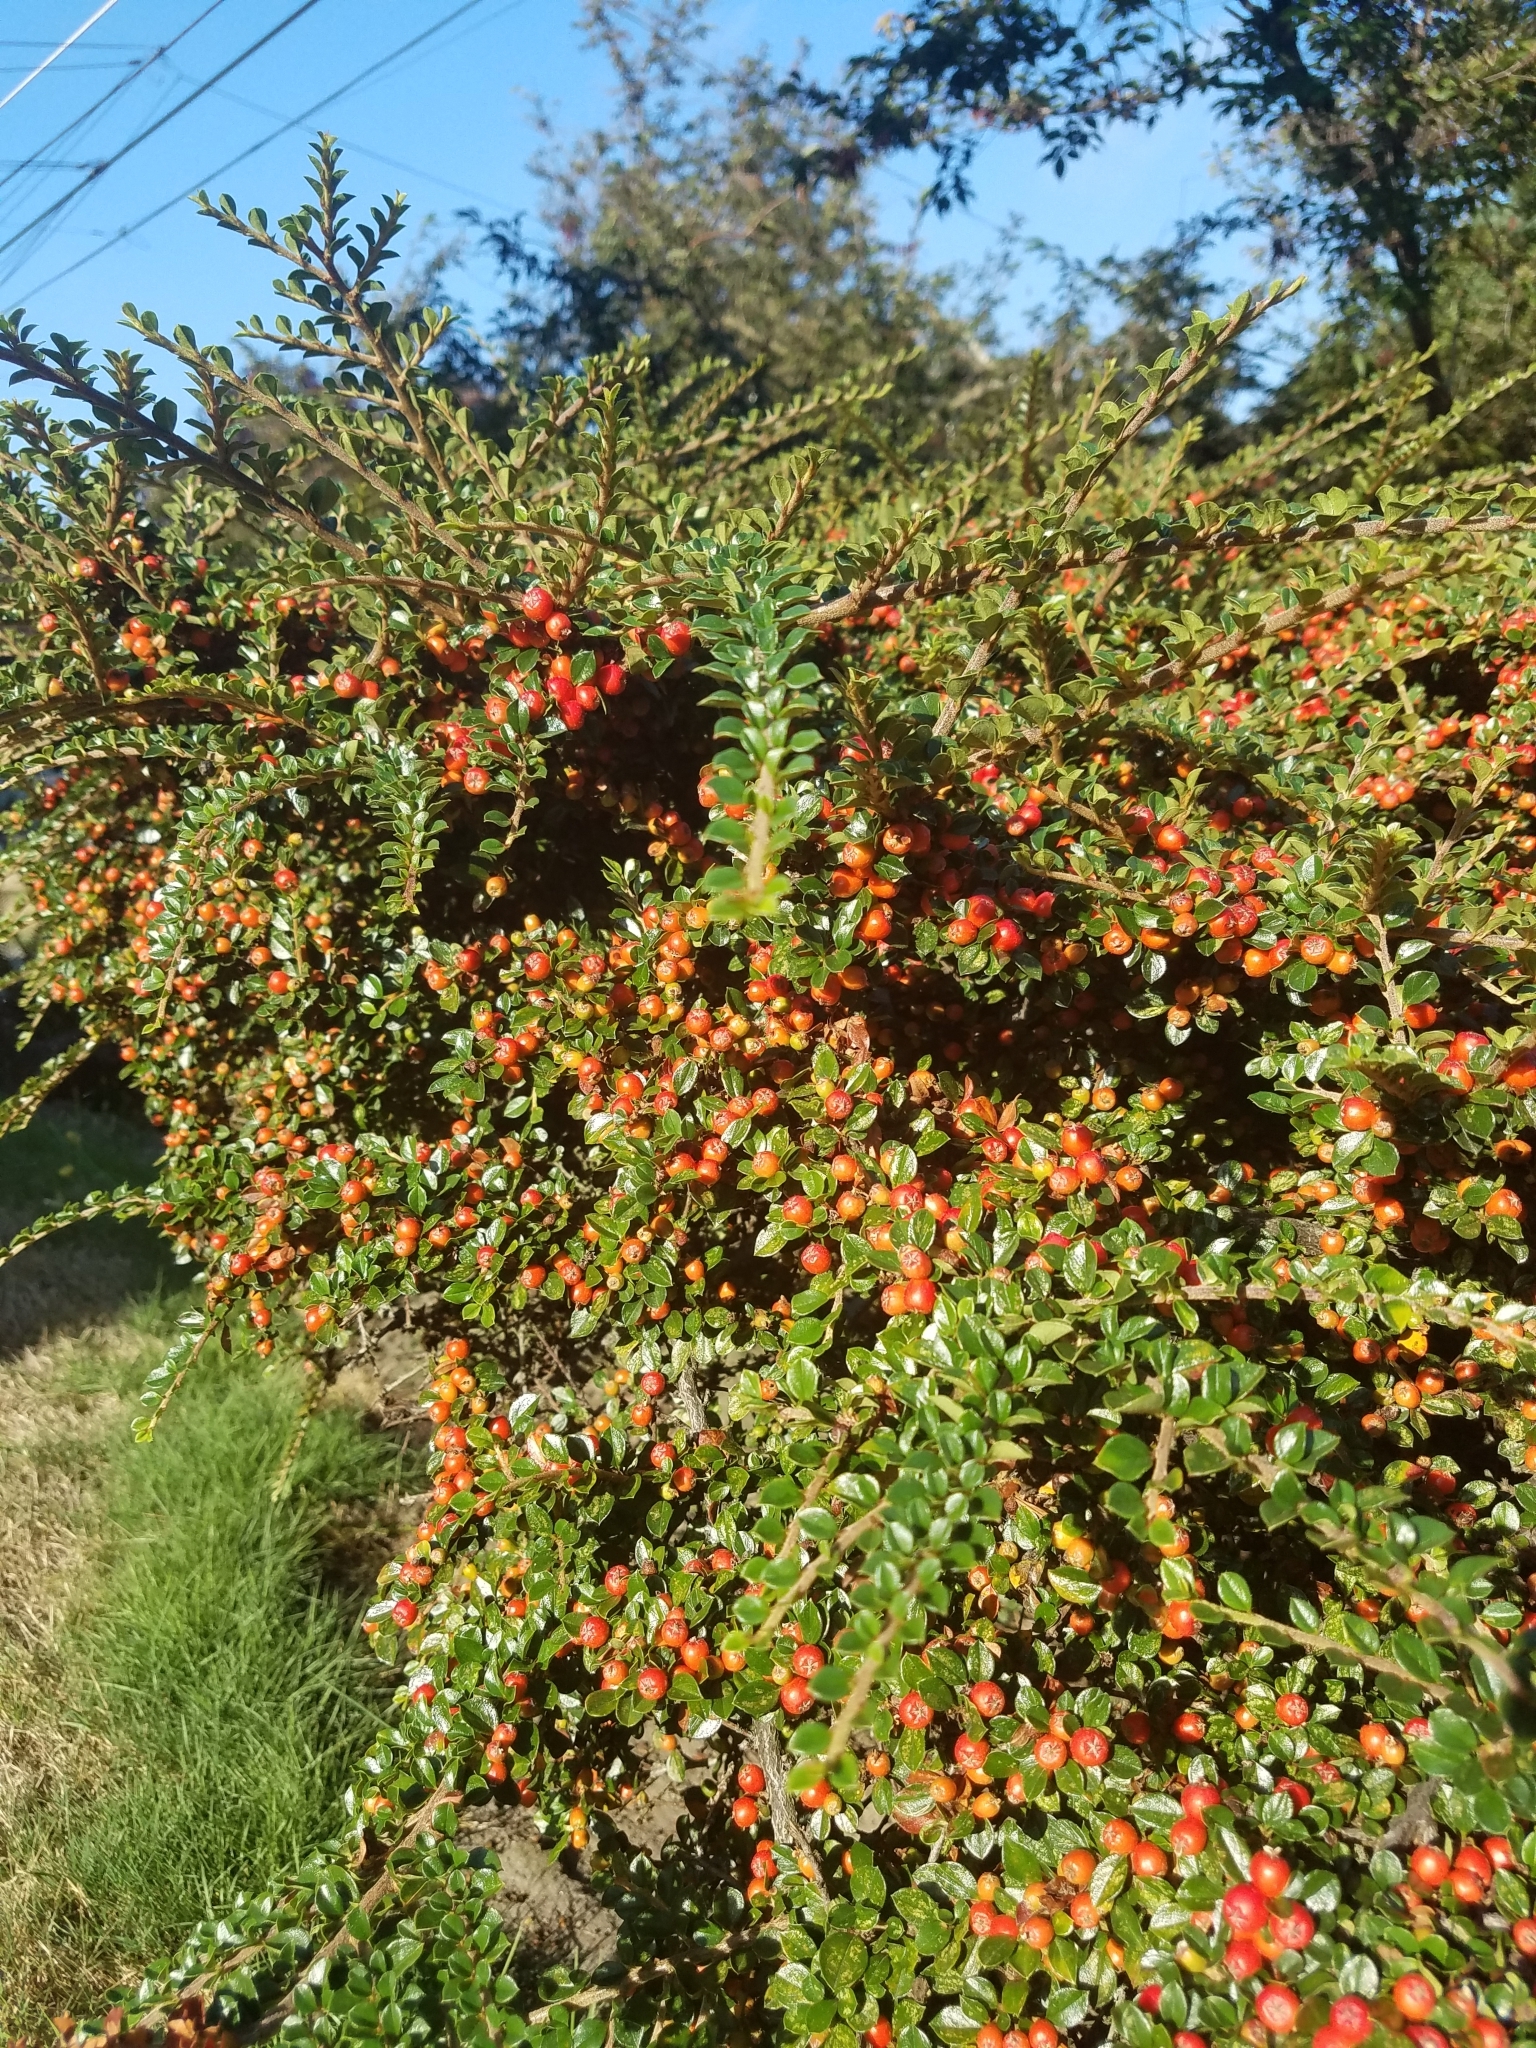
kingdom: Plantae
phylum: Tracheophyta
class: Magnoliopsida
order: Rosales
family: Rosaceae
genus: Cotoneaster
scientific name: Cotoneaster horizontalis
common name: Wall cotoneaster
